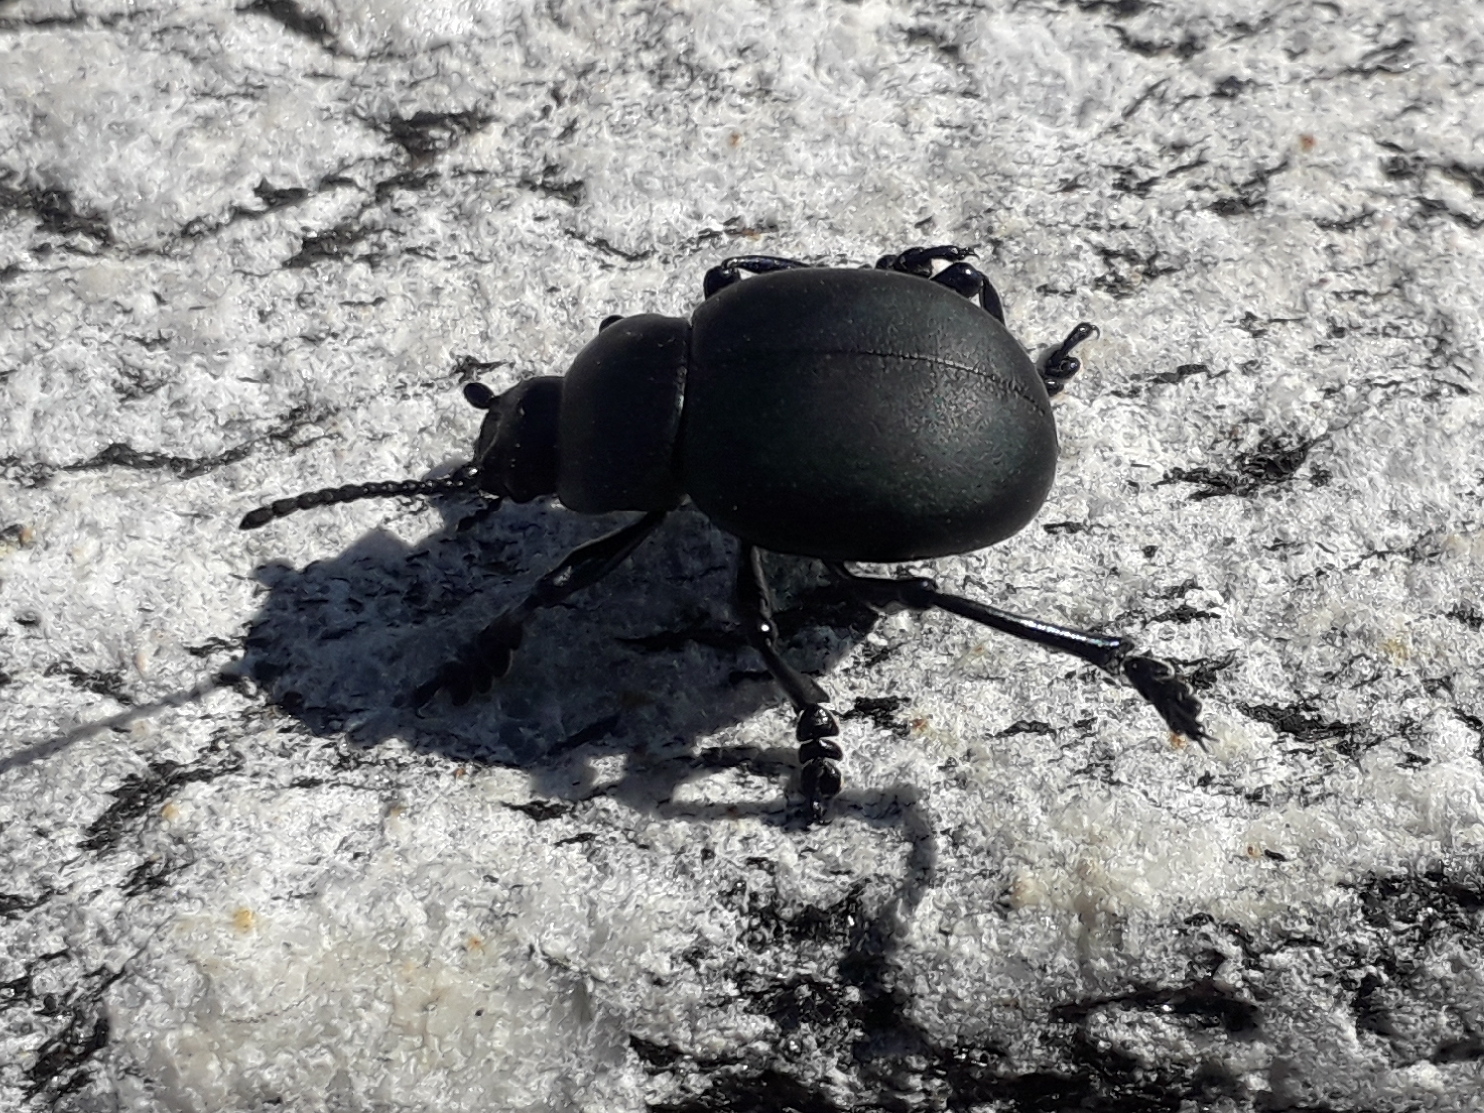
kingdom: Animalia
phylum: Arthropoda
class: Insecta
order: Coleoptera
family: Chrysomelidae
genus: Timarcha
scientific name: Timarcha tenebricosa
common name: Bloody-nosed beetle
